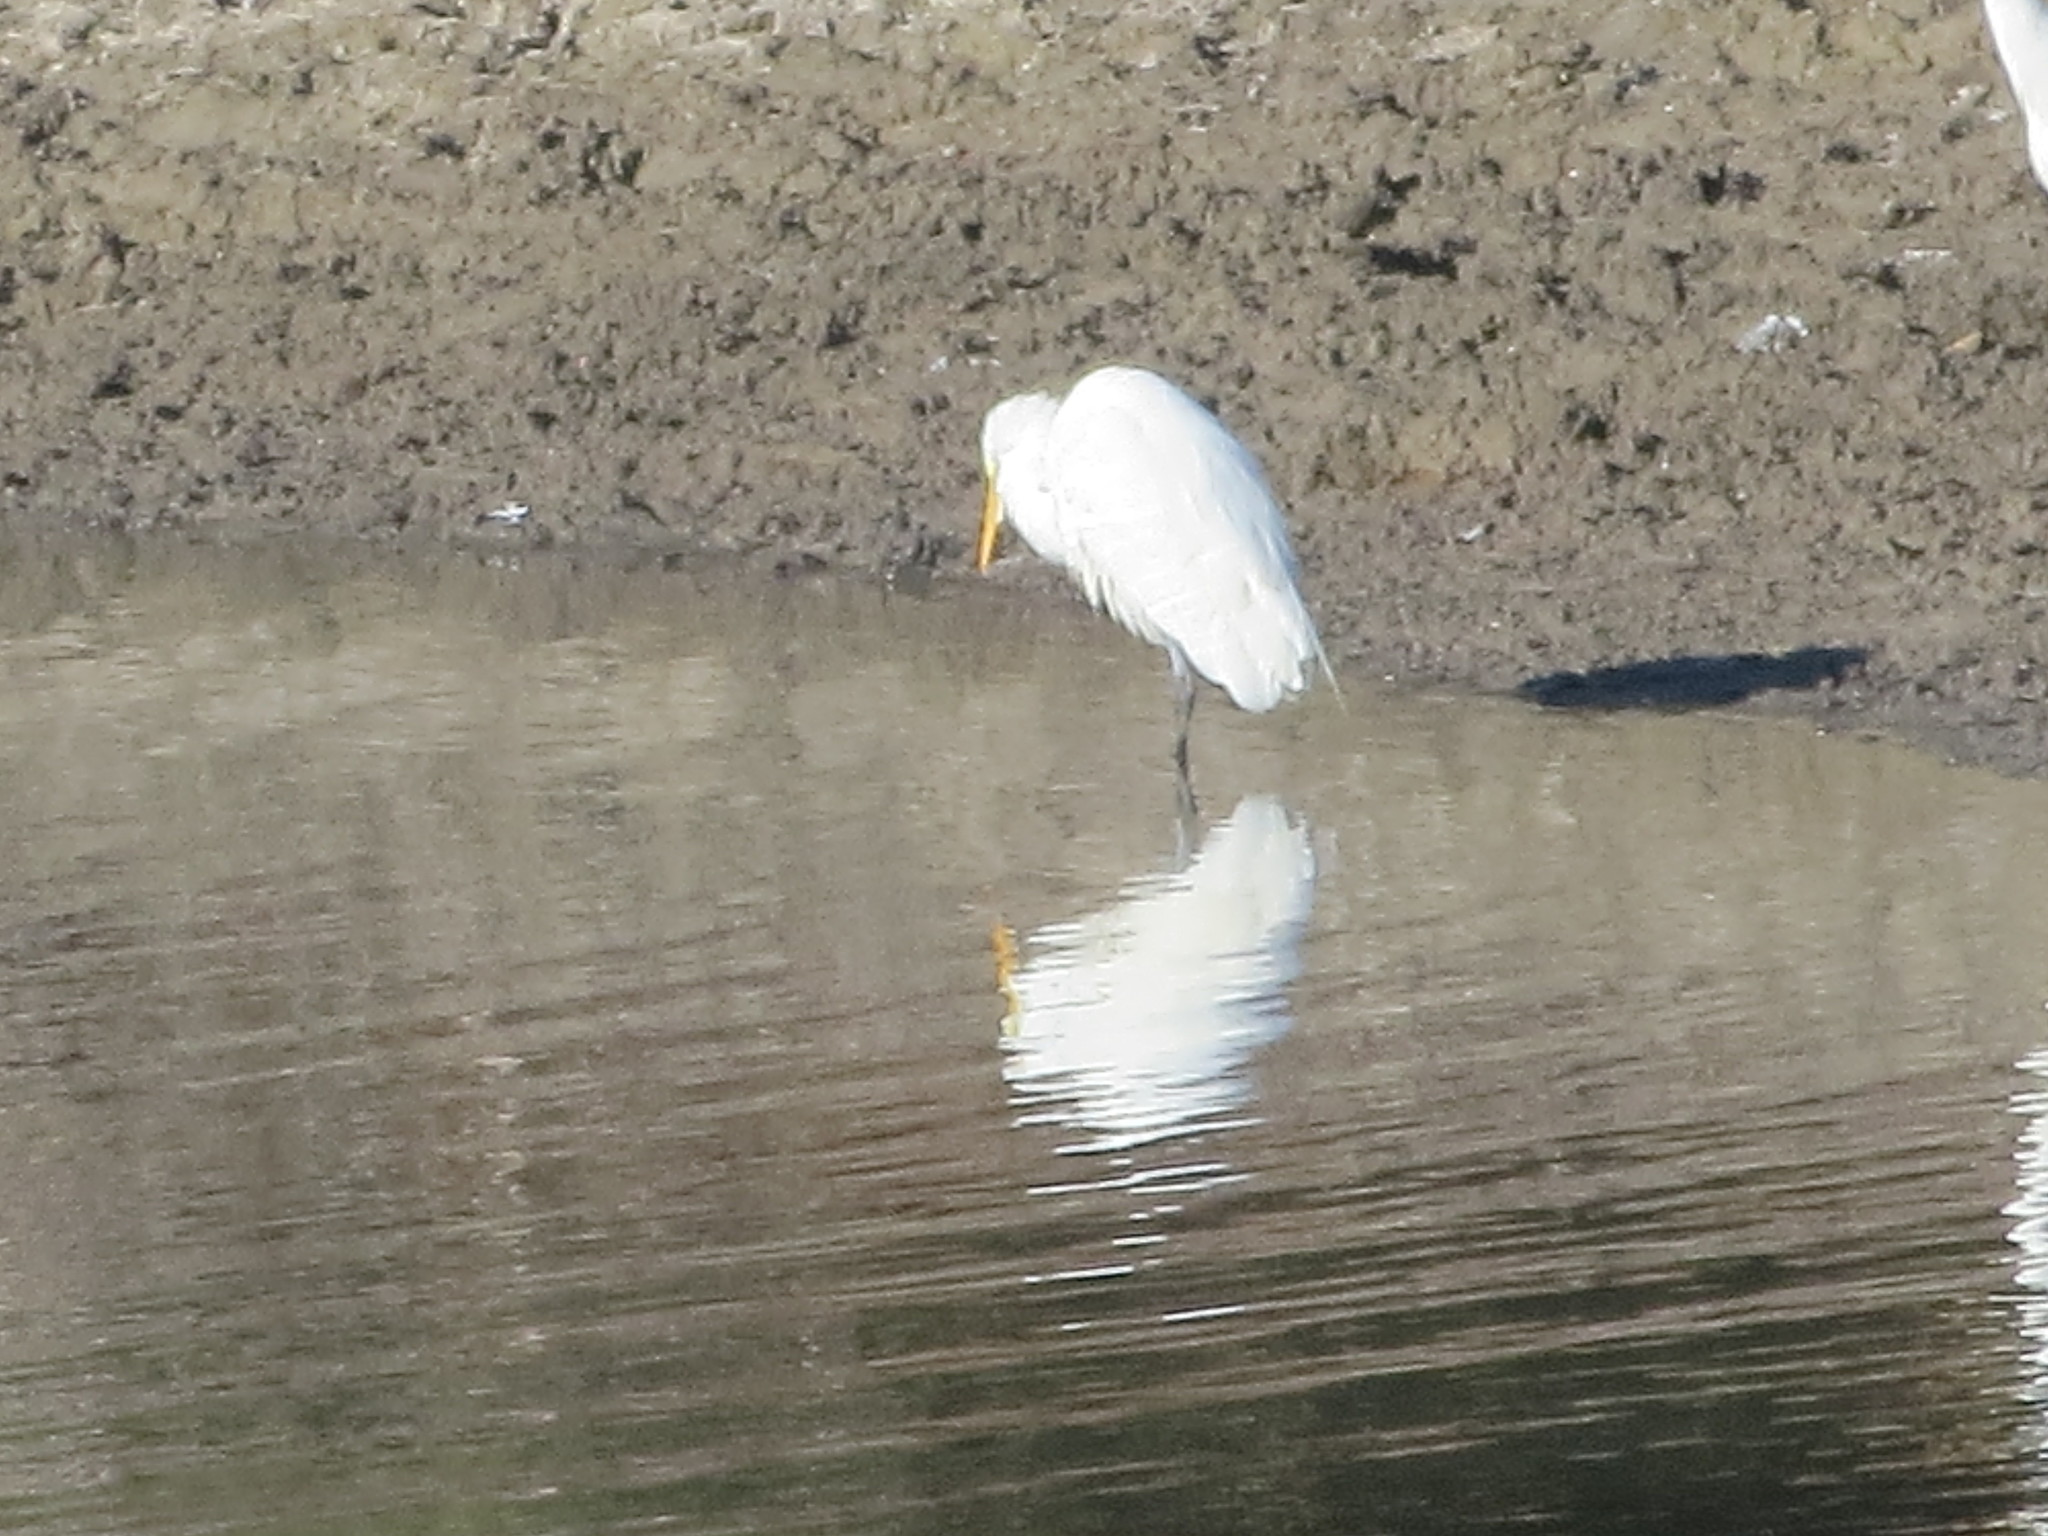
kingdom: Animalia
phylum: Chordata
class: Aves
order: Pelecaniformes
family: Ardeidae
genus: Ardea
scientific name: Ardea alba
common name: Great egret
